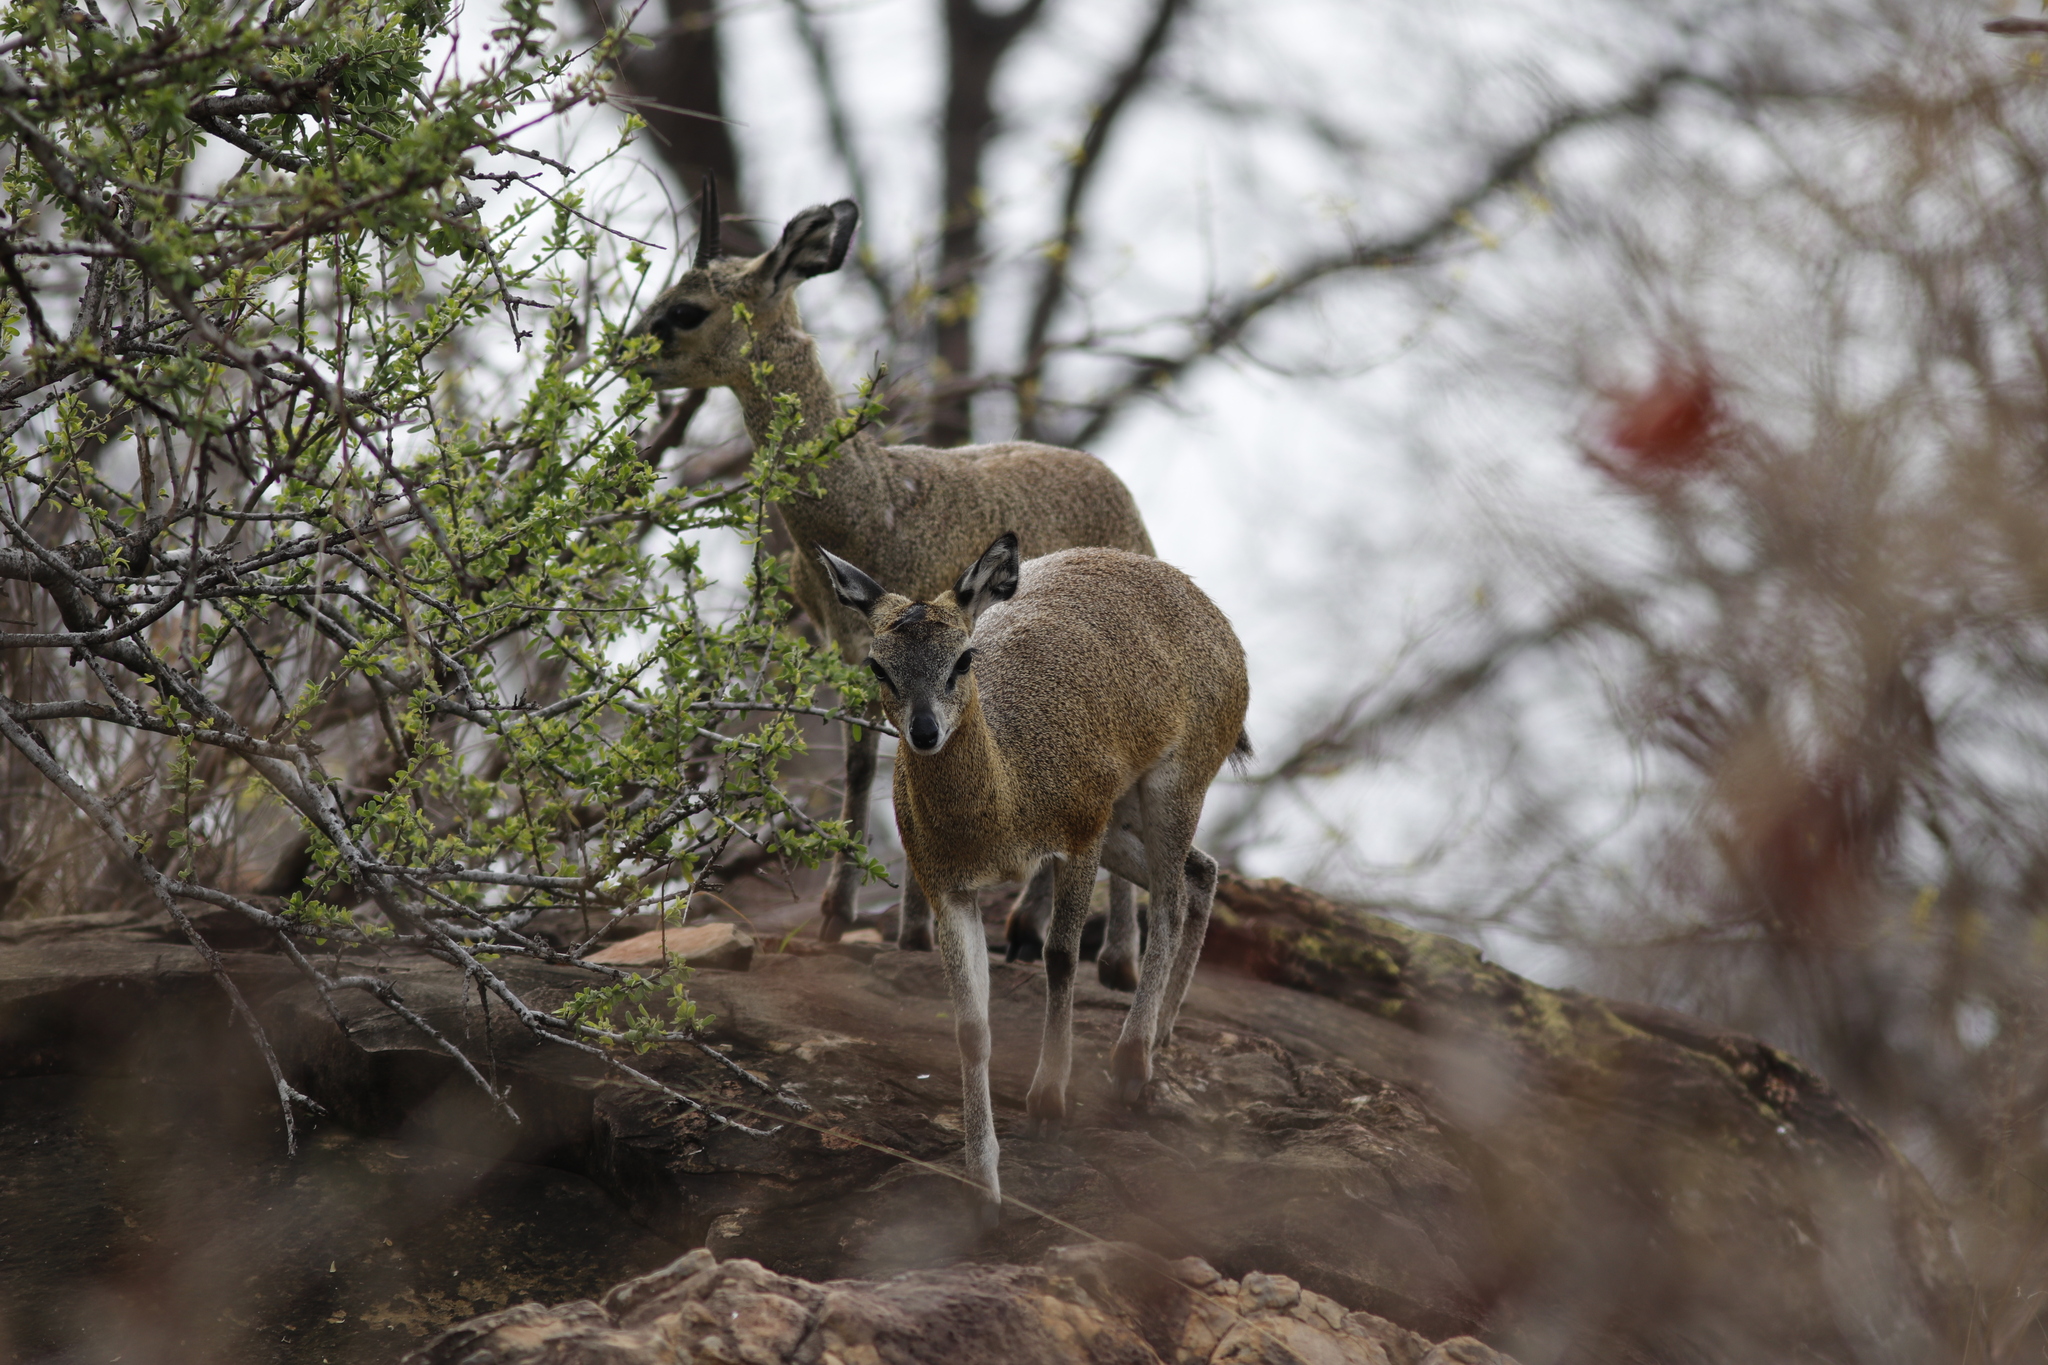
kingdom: Animalia
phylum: Chordata
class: Mammalia
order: Artiodactyla
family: Bovidae
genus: Oreotragus
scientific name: Oreotragus oreotragus
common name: Klipspringer
